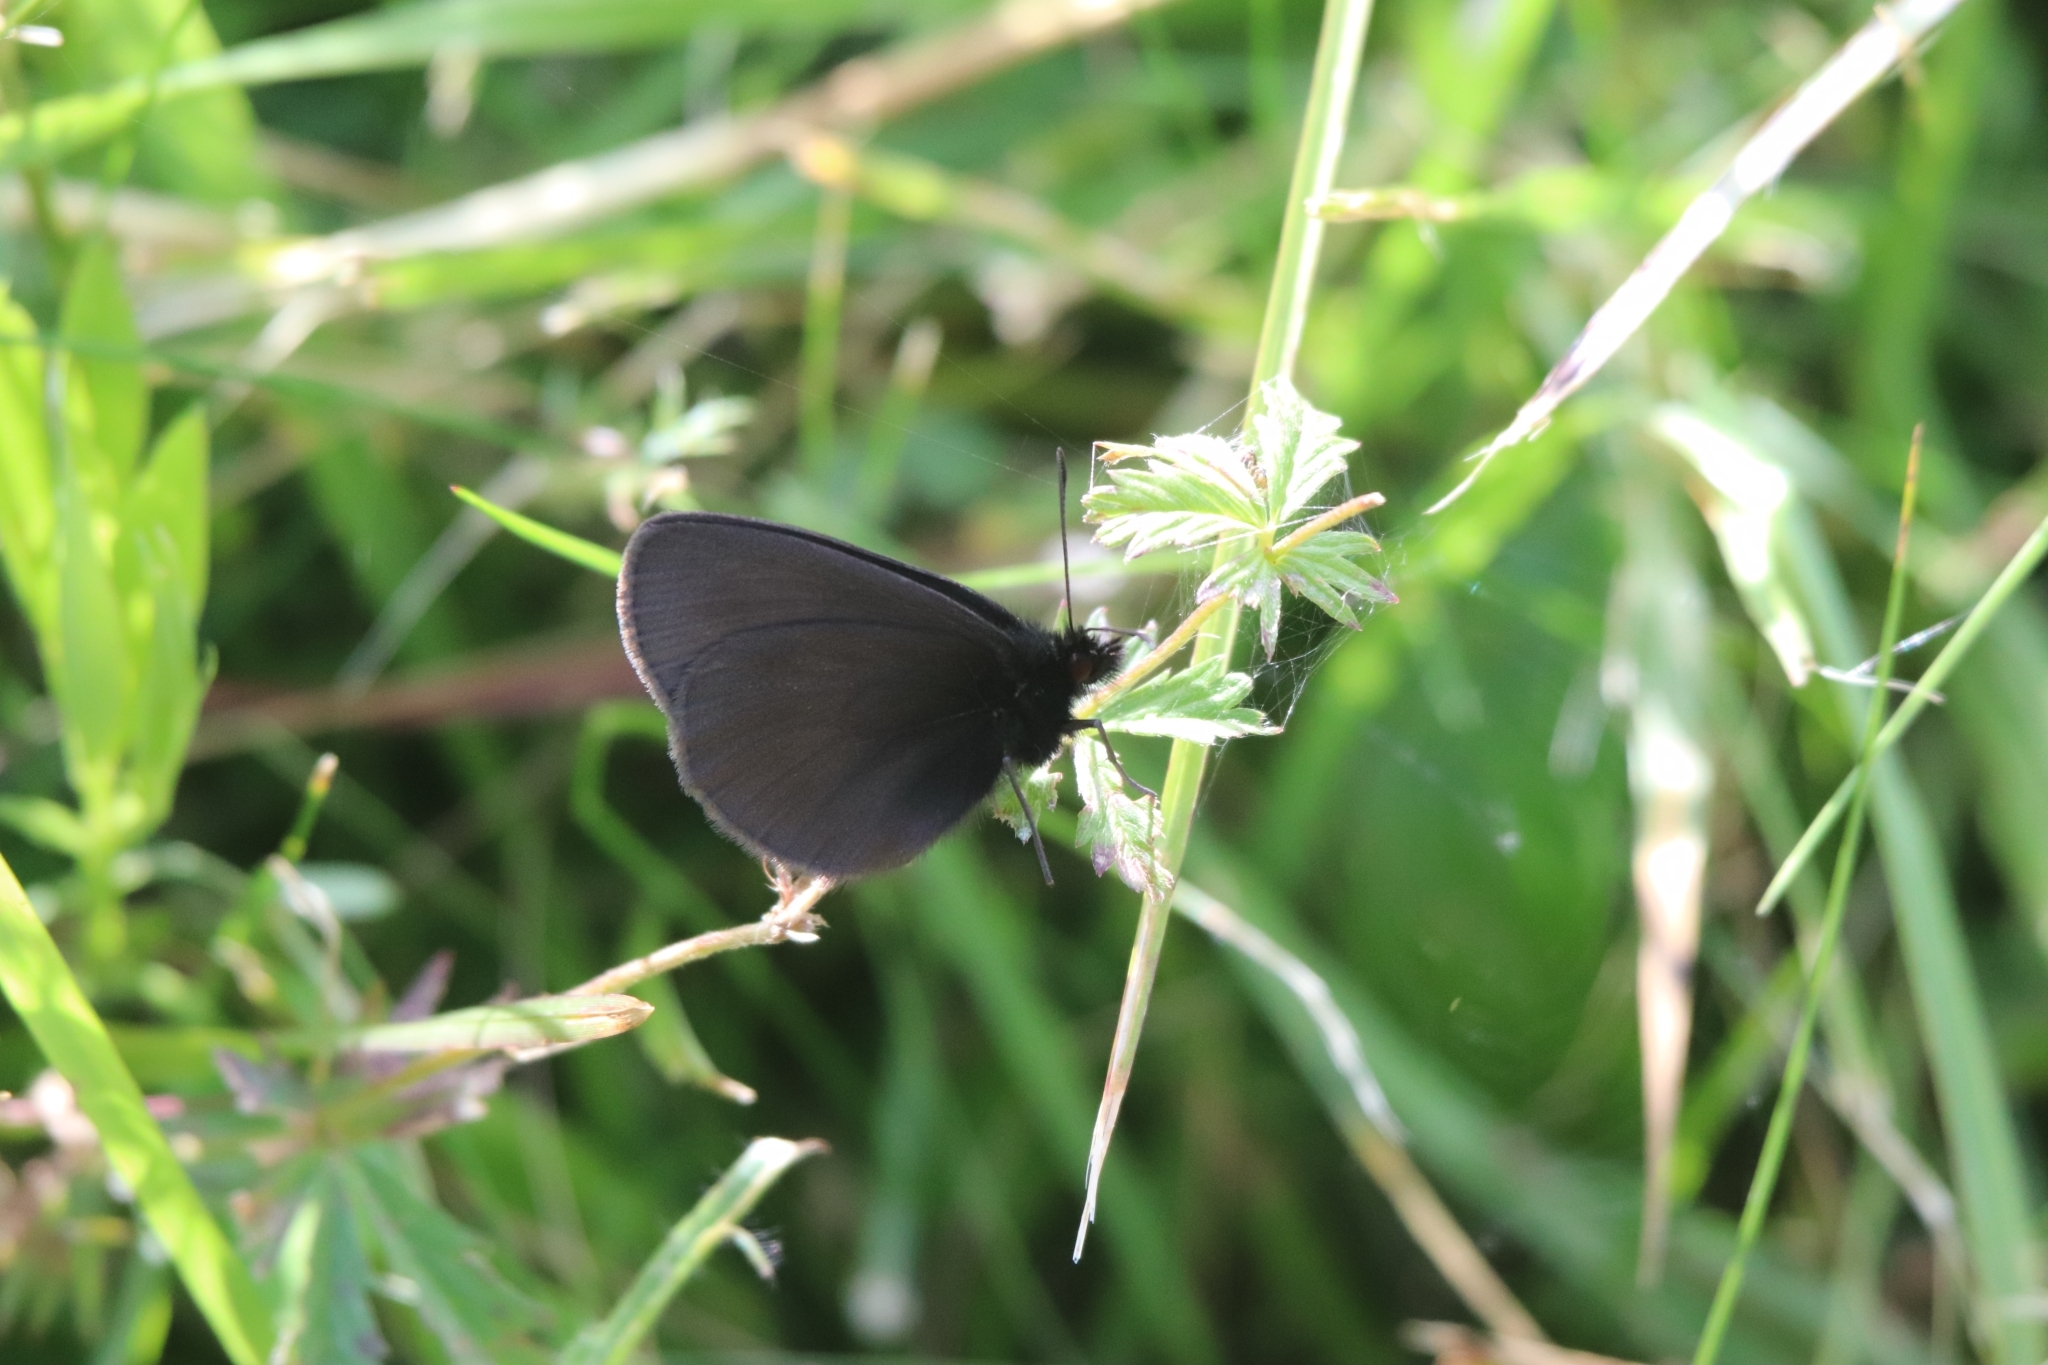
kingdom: Animalia
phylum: Arthropoda
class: Insecta
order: Lepidoptera
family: Nymphalidae
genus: Erebia
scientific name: Erebia manto
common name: Yellow-spotted ringlet
